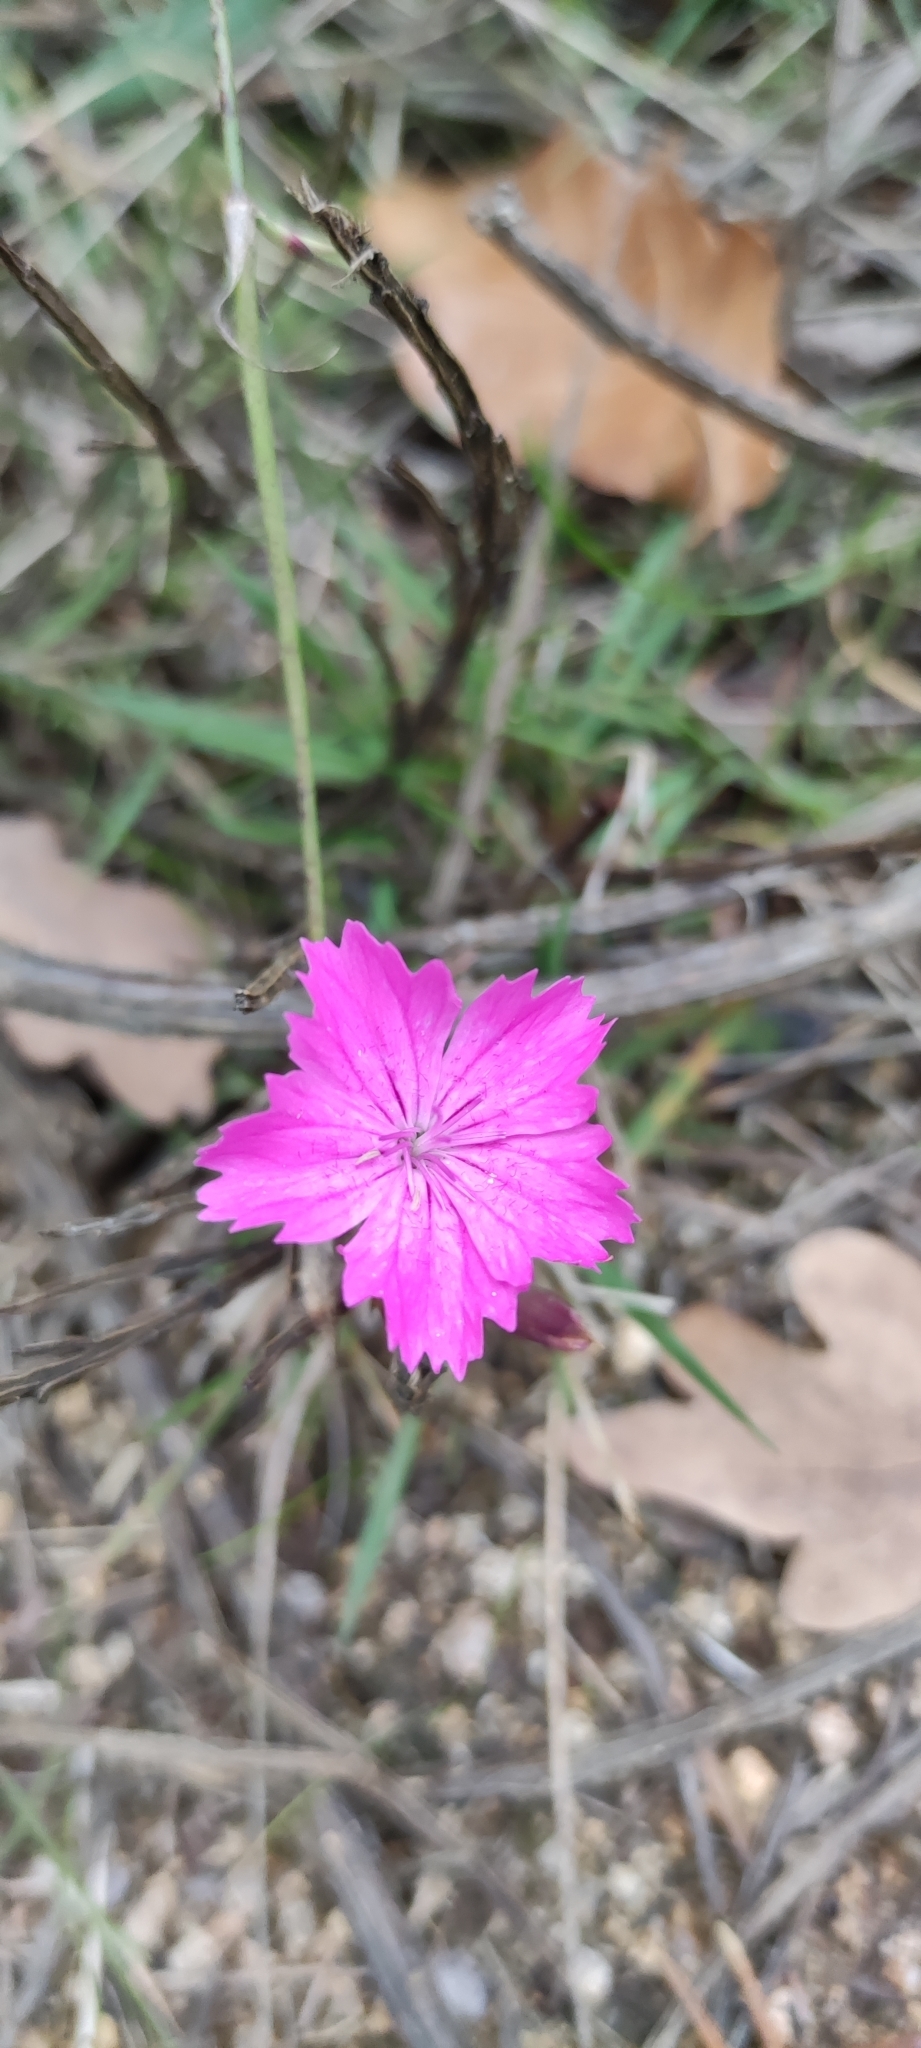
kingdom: Plantae
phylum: Tracheophyta
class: Magnoliopsida
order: Caryophyllales
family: Caryophyllaceae
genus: Dianthus
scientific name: Dianthus carthusianorum
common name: Carthusian pink
